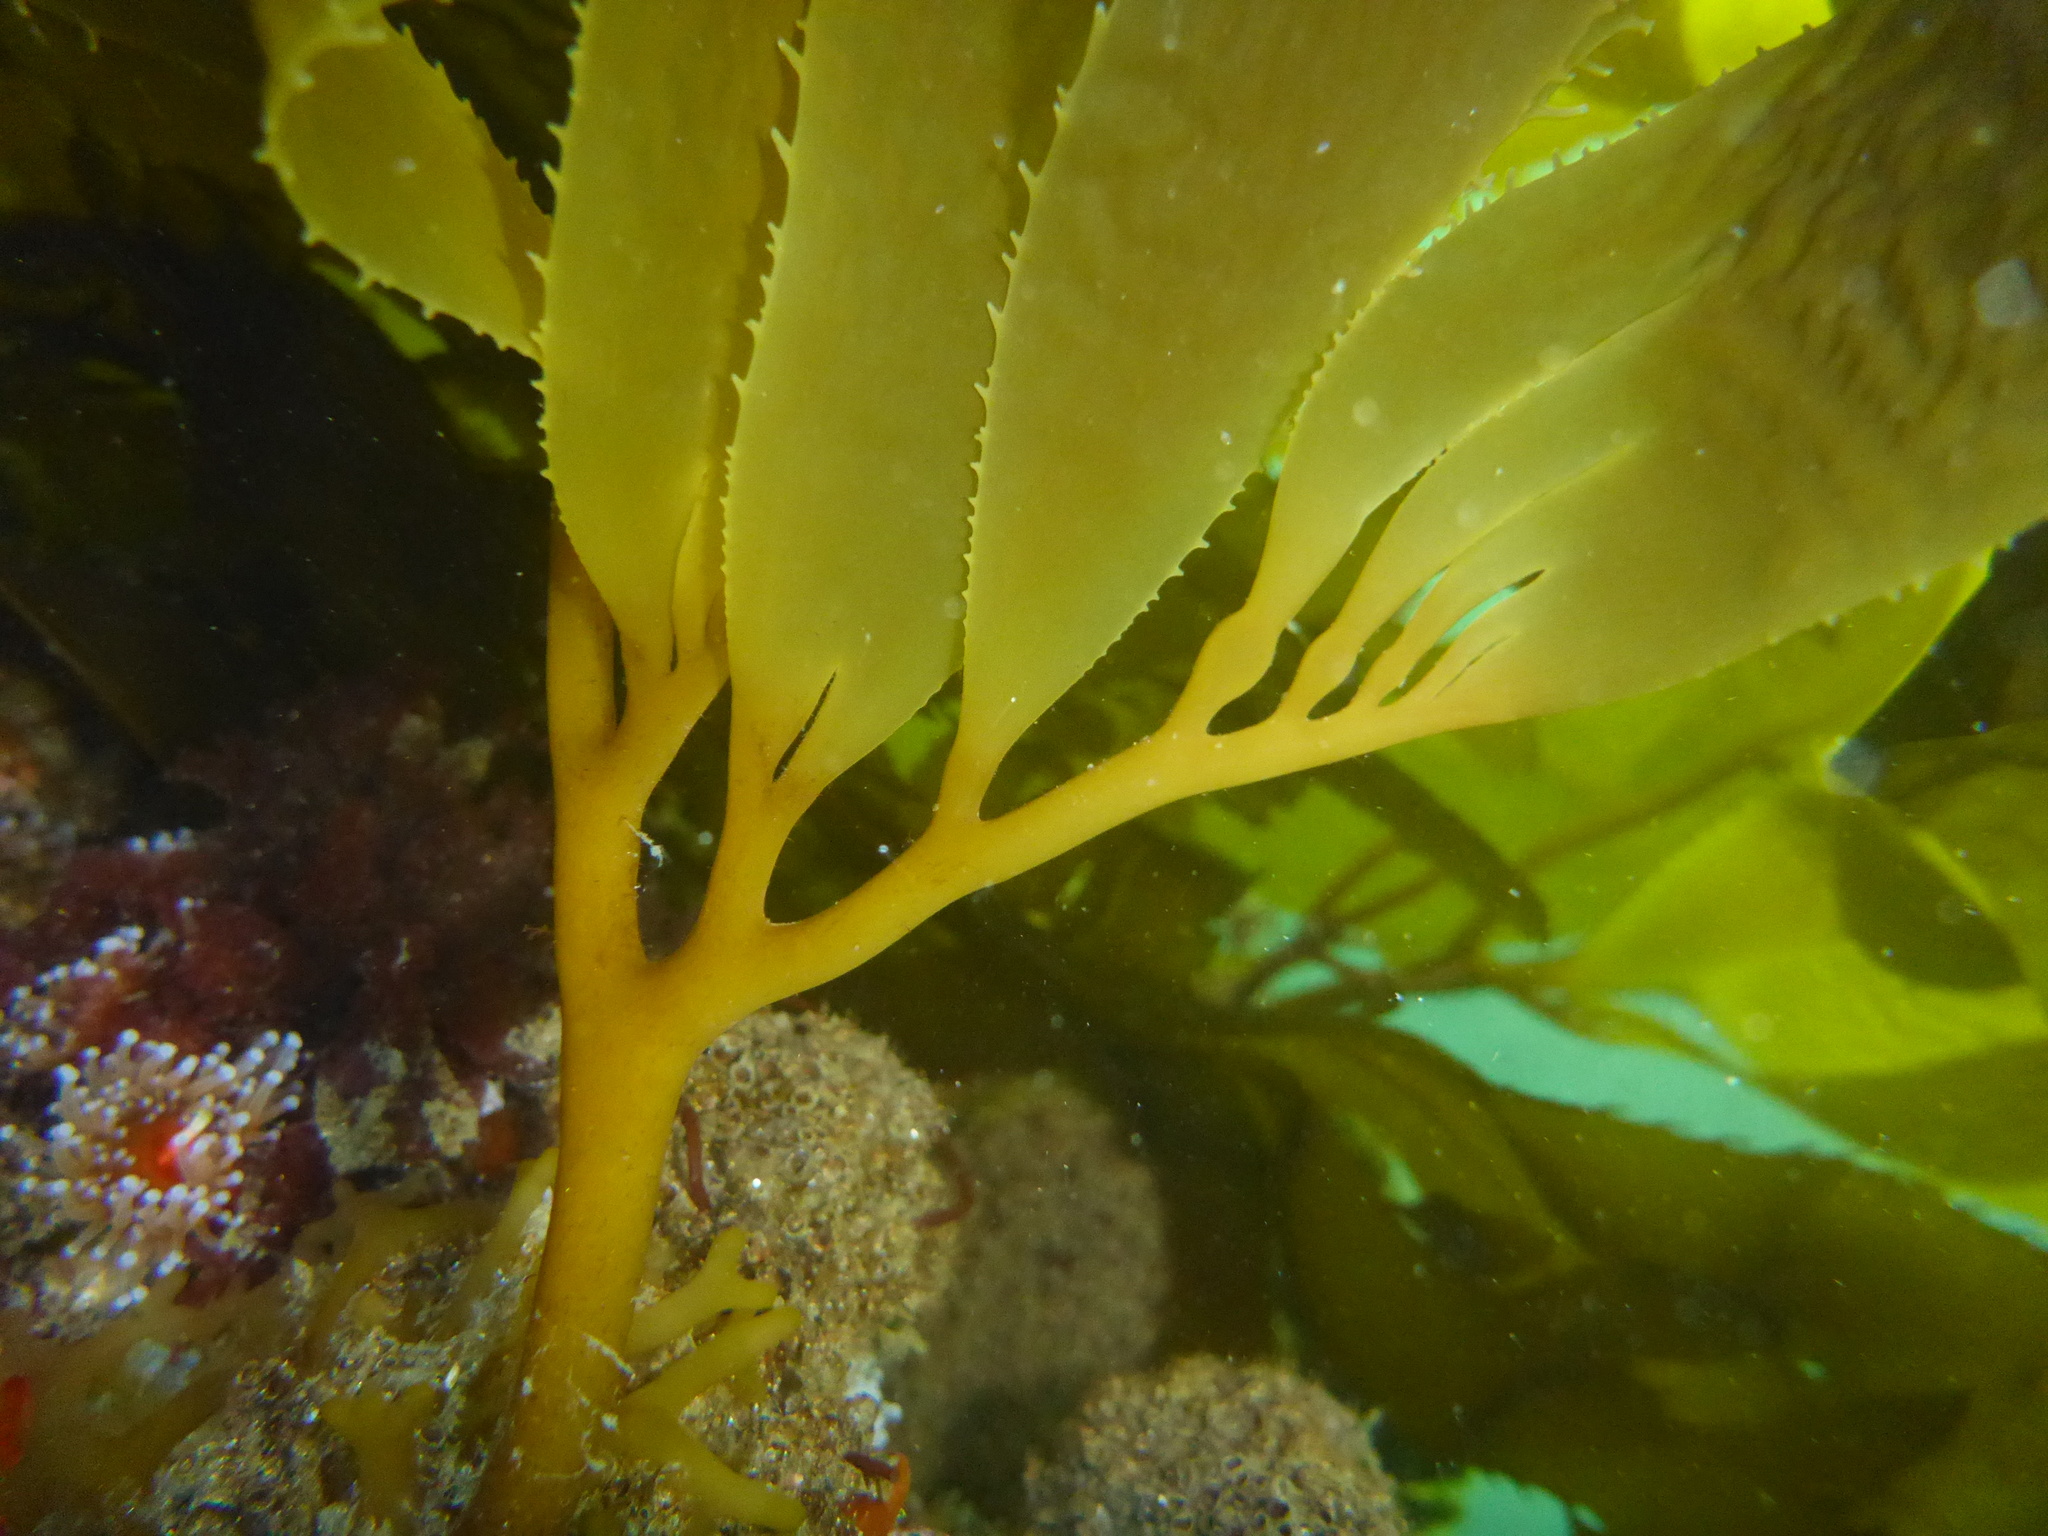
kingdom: Chromista
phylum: Ochrophyta
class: Phaeophyceae
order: Laminariales
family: Laminariaceae
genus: Macrocystis
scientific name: Macrocystis pyrifera
